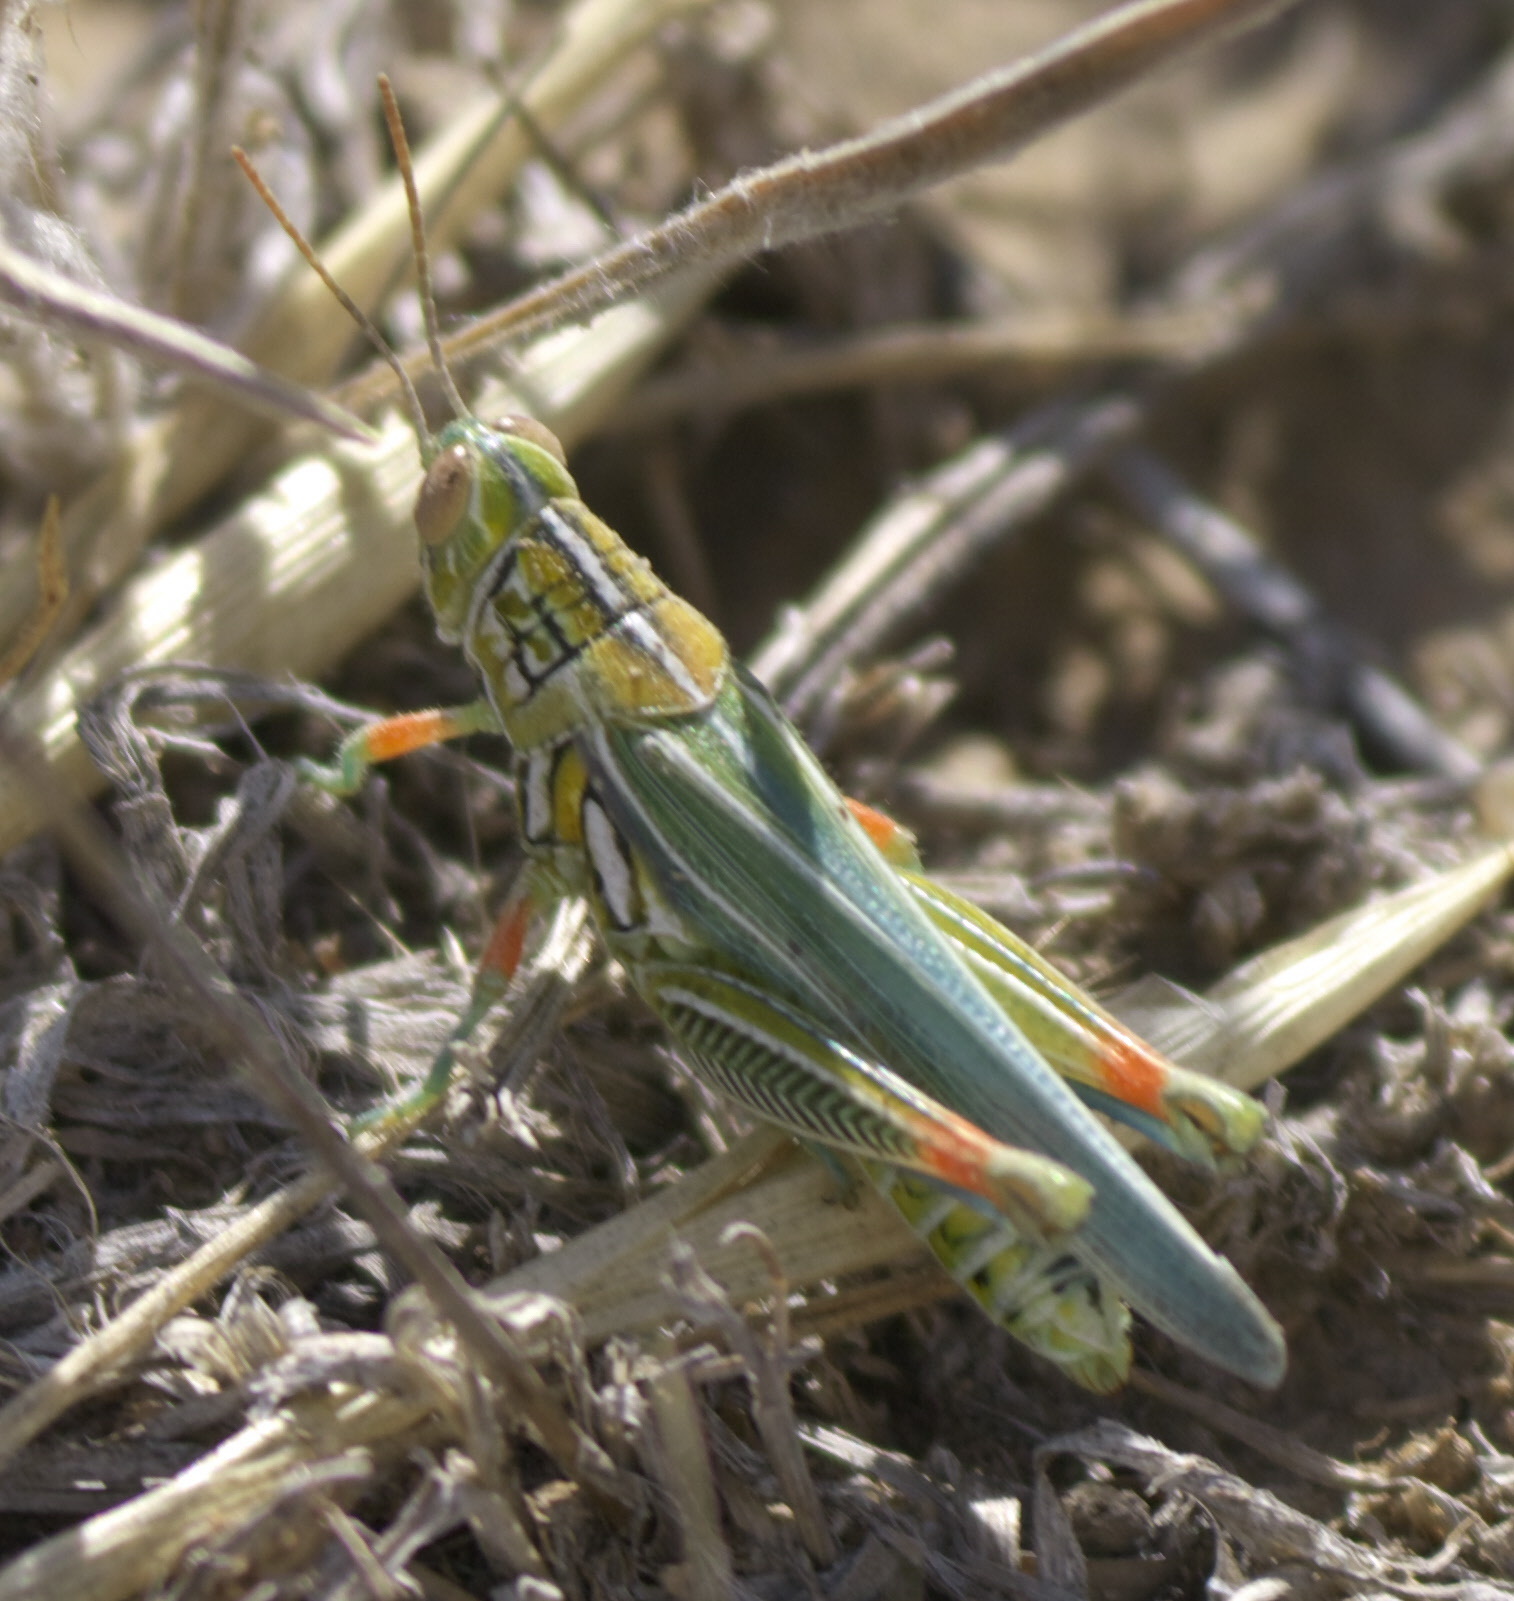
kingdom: Animalia
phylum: Arthropoda
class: Insecta
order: Orthoptera
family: Acrididae
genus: Hesperotettix
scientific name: Hesperotettix viridis
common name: Meadow purple-striped grasshopper
